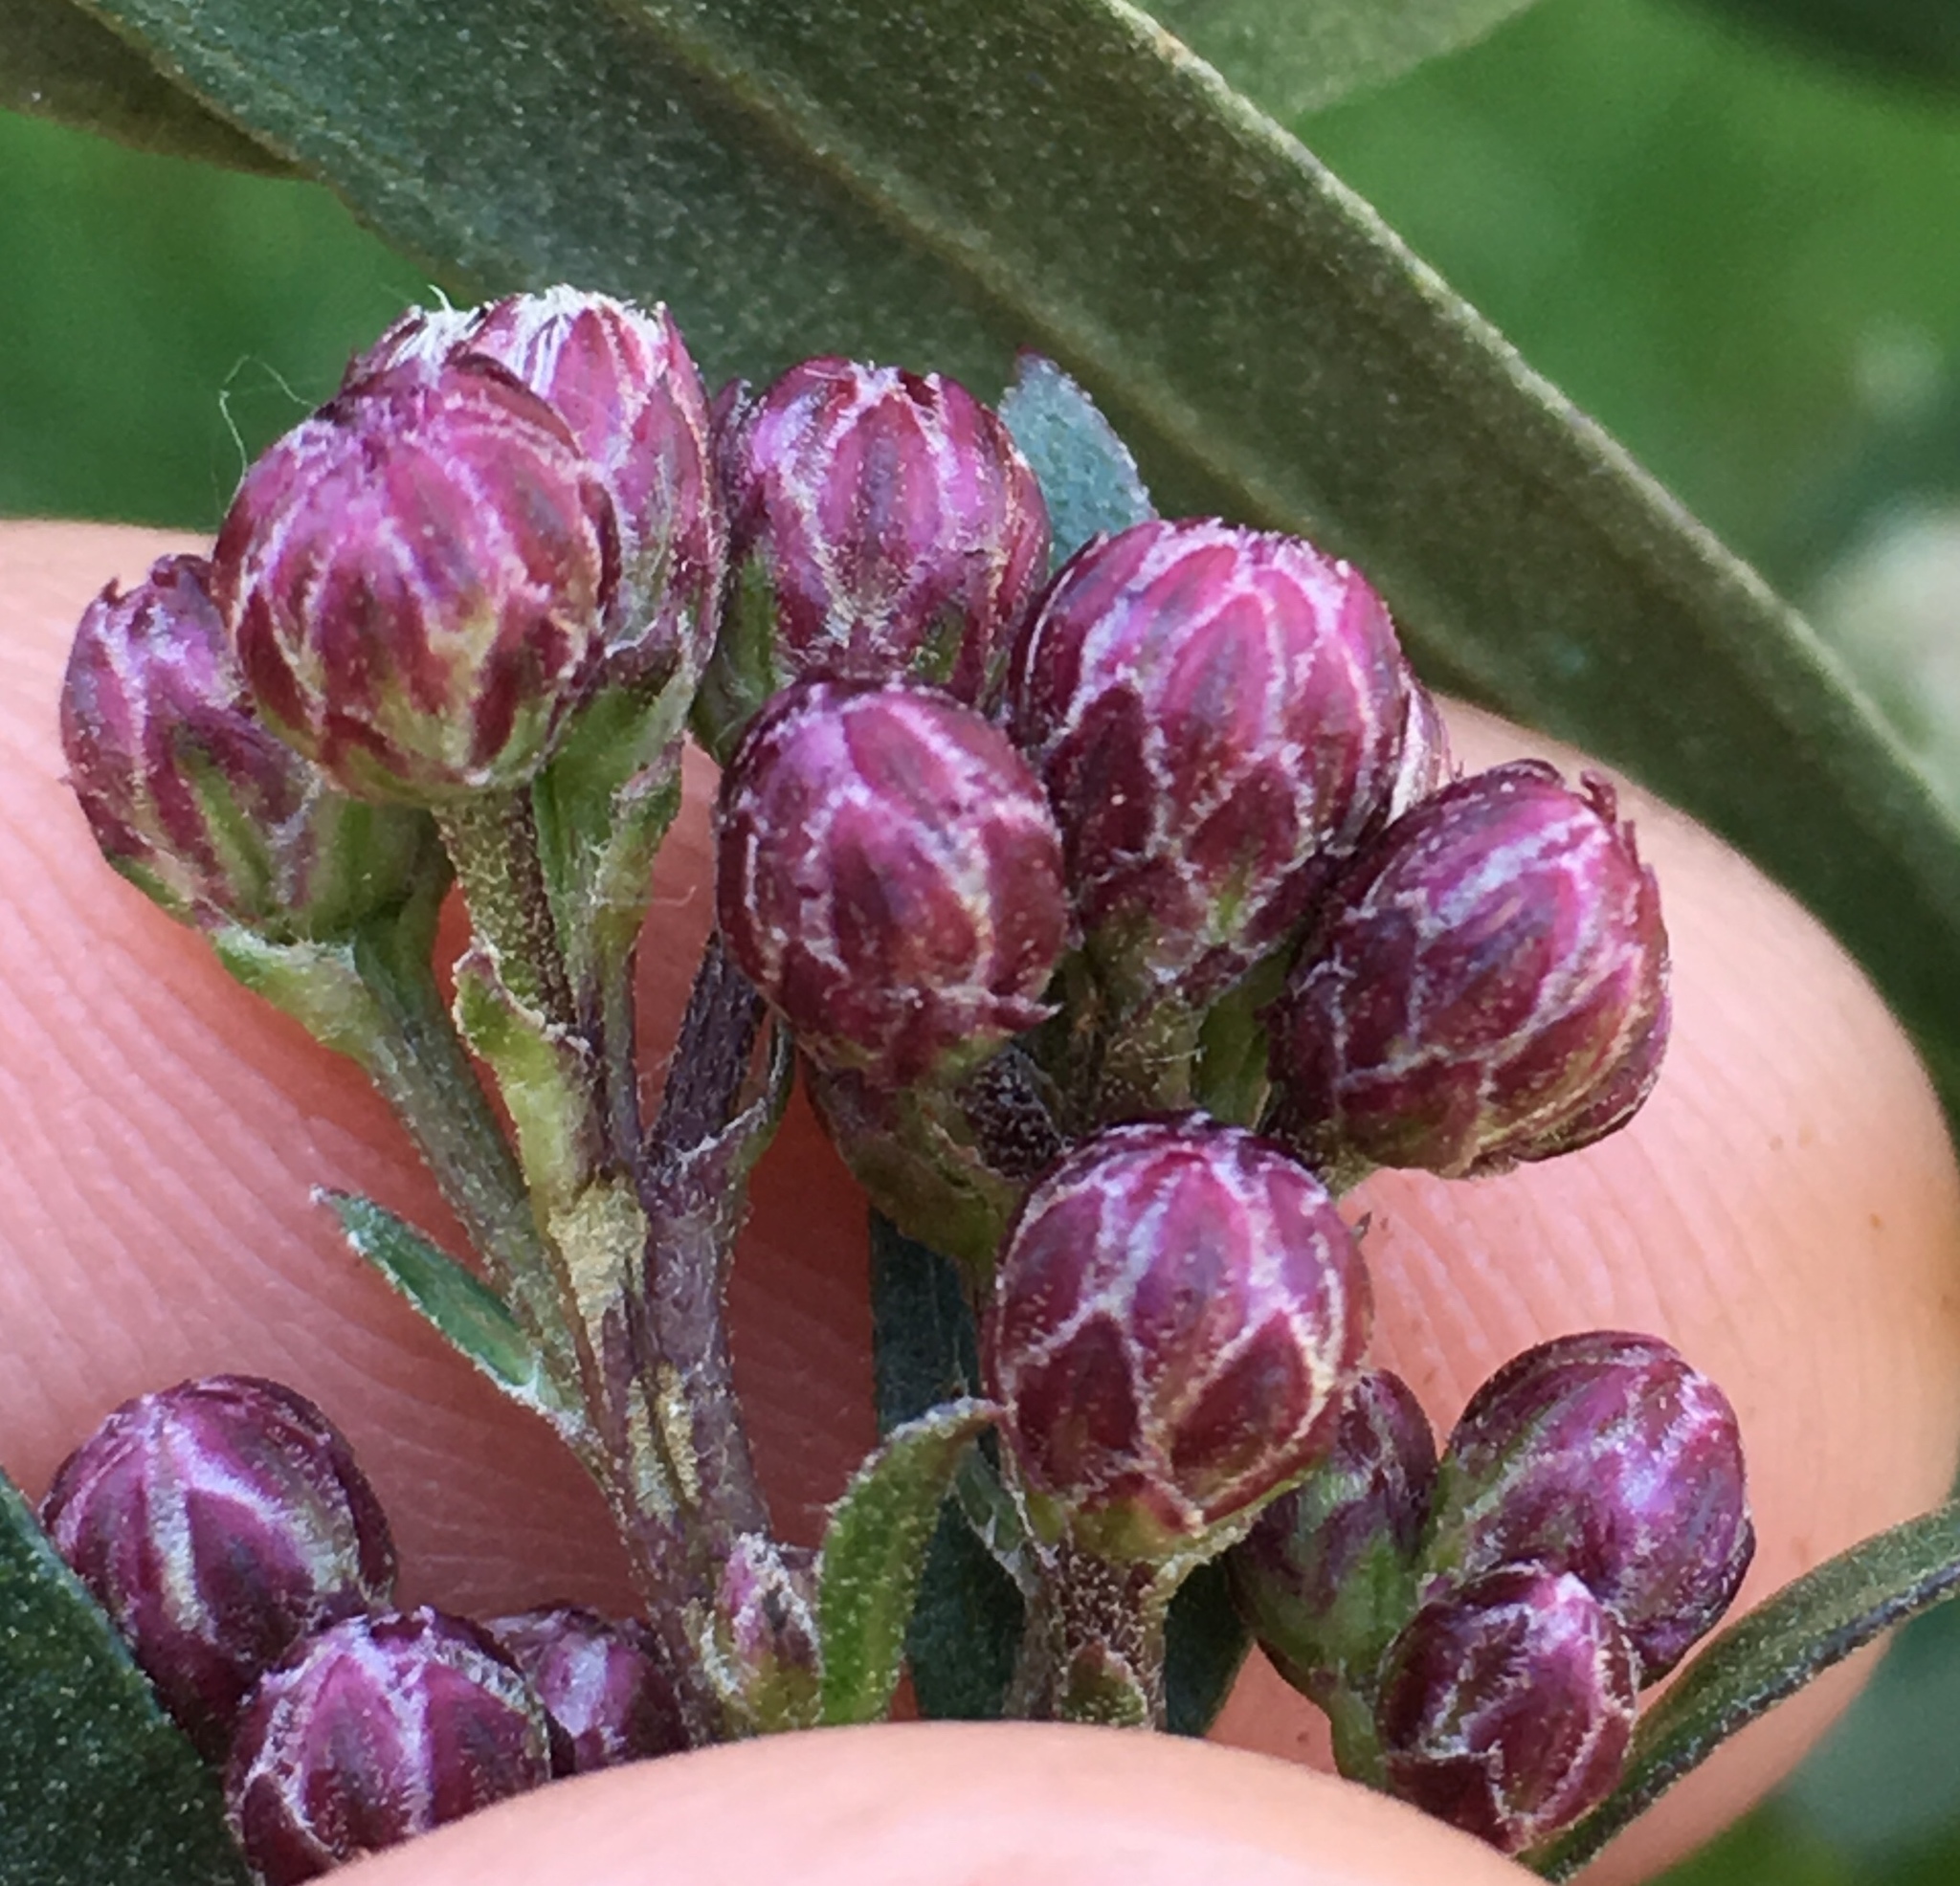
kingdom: Plantae
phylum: Tracheophyta
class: Magnoliopsida
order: Asterales
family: Asteraceae
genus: Baccharis
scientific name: Baccharis salicifolia
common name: Sticky baccharis
